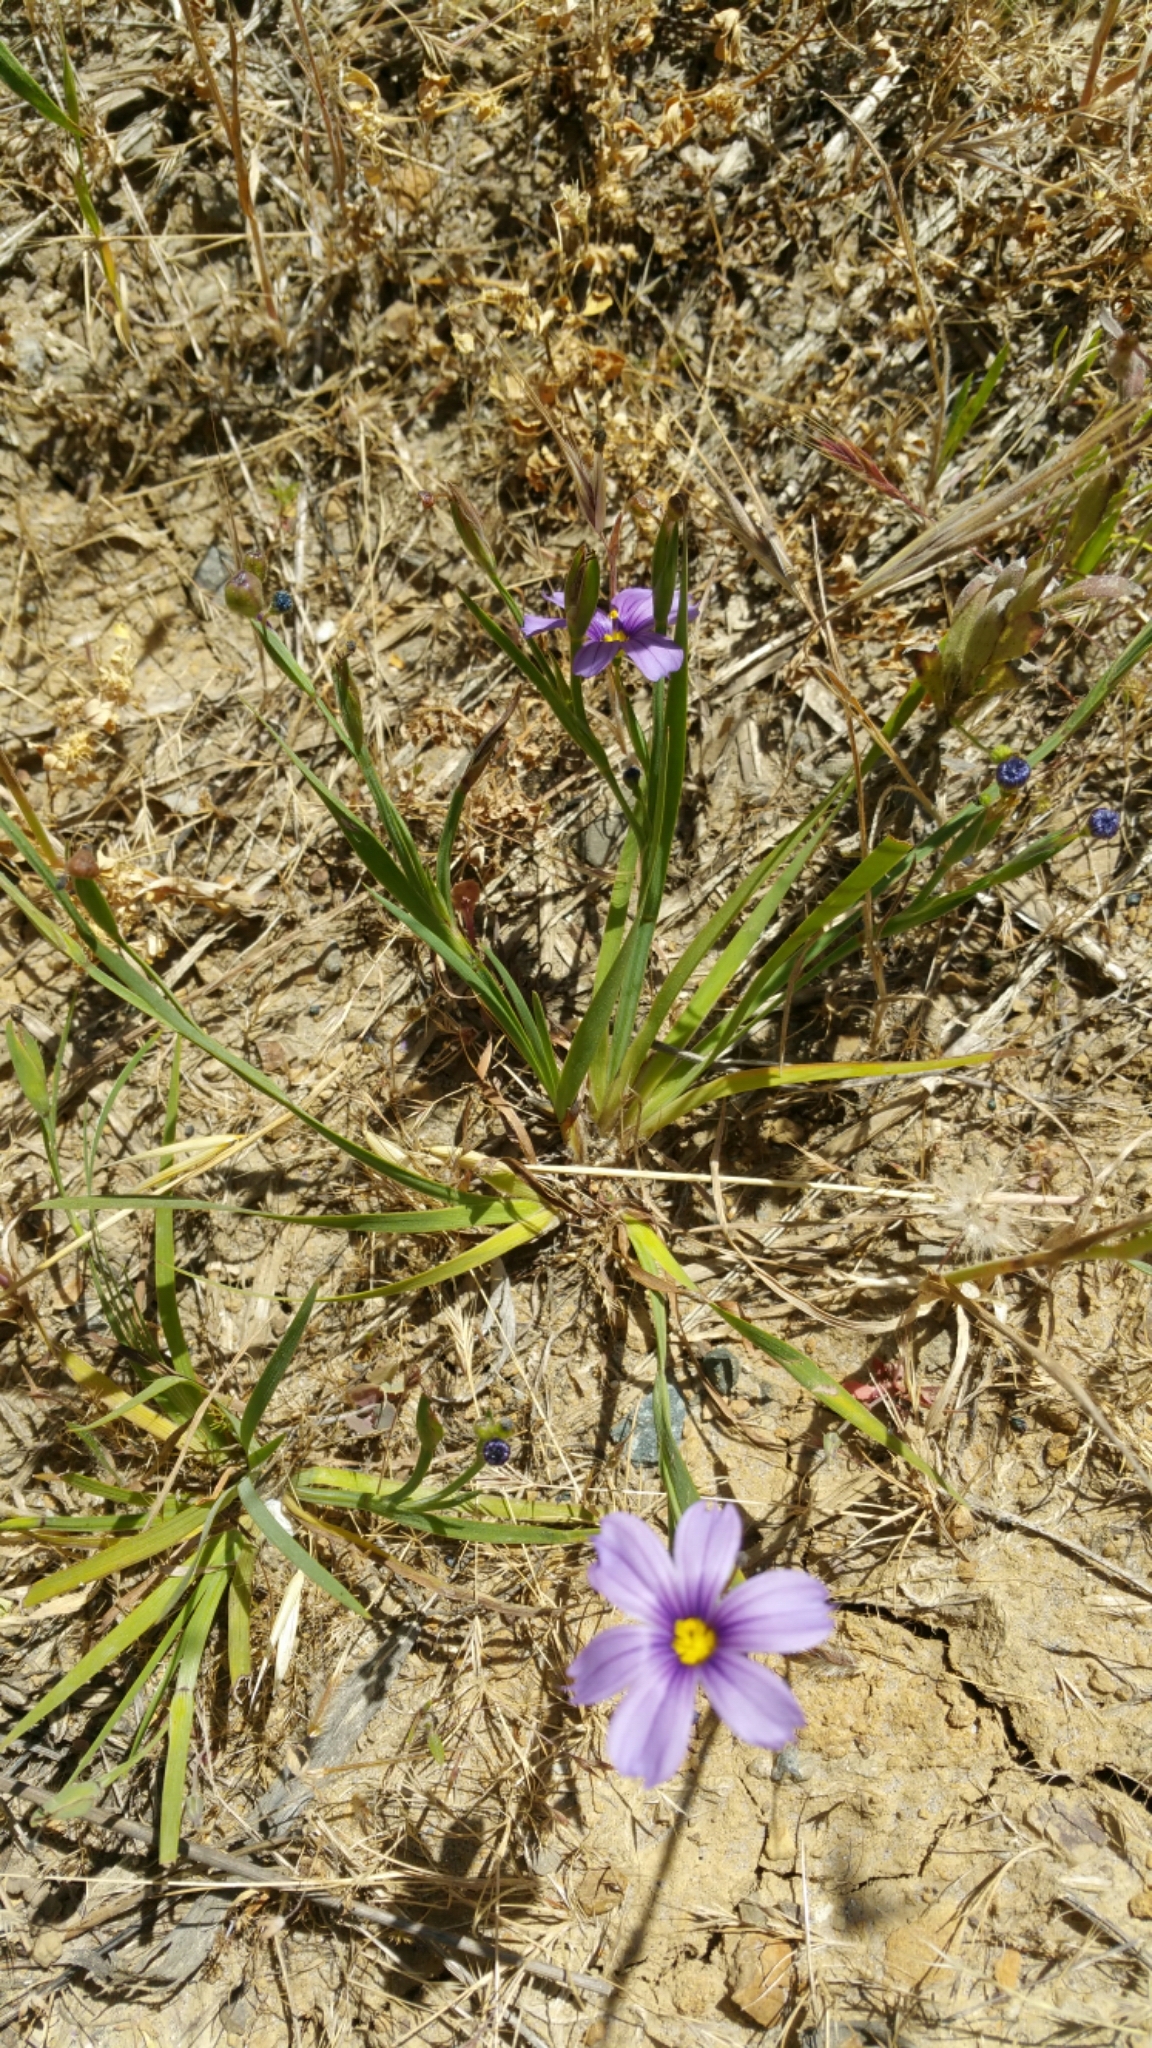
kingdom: Plantae
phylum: Tracheophyta
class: Liliopsida
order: Asparagales
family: Iridaceae
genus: Sisyrinchium
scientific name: Sisyrinchium bellum
